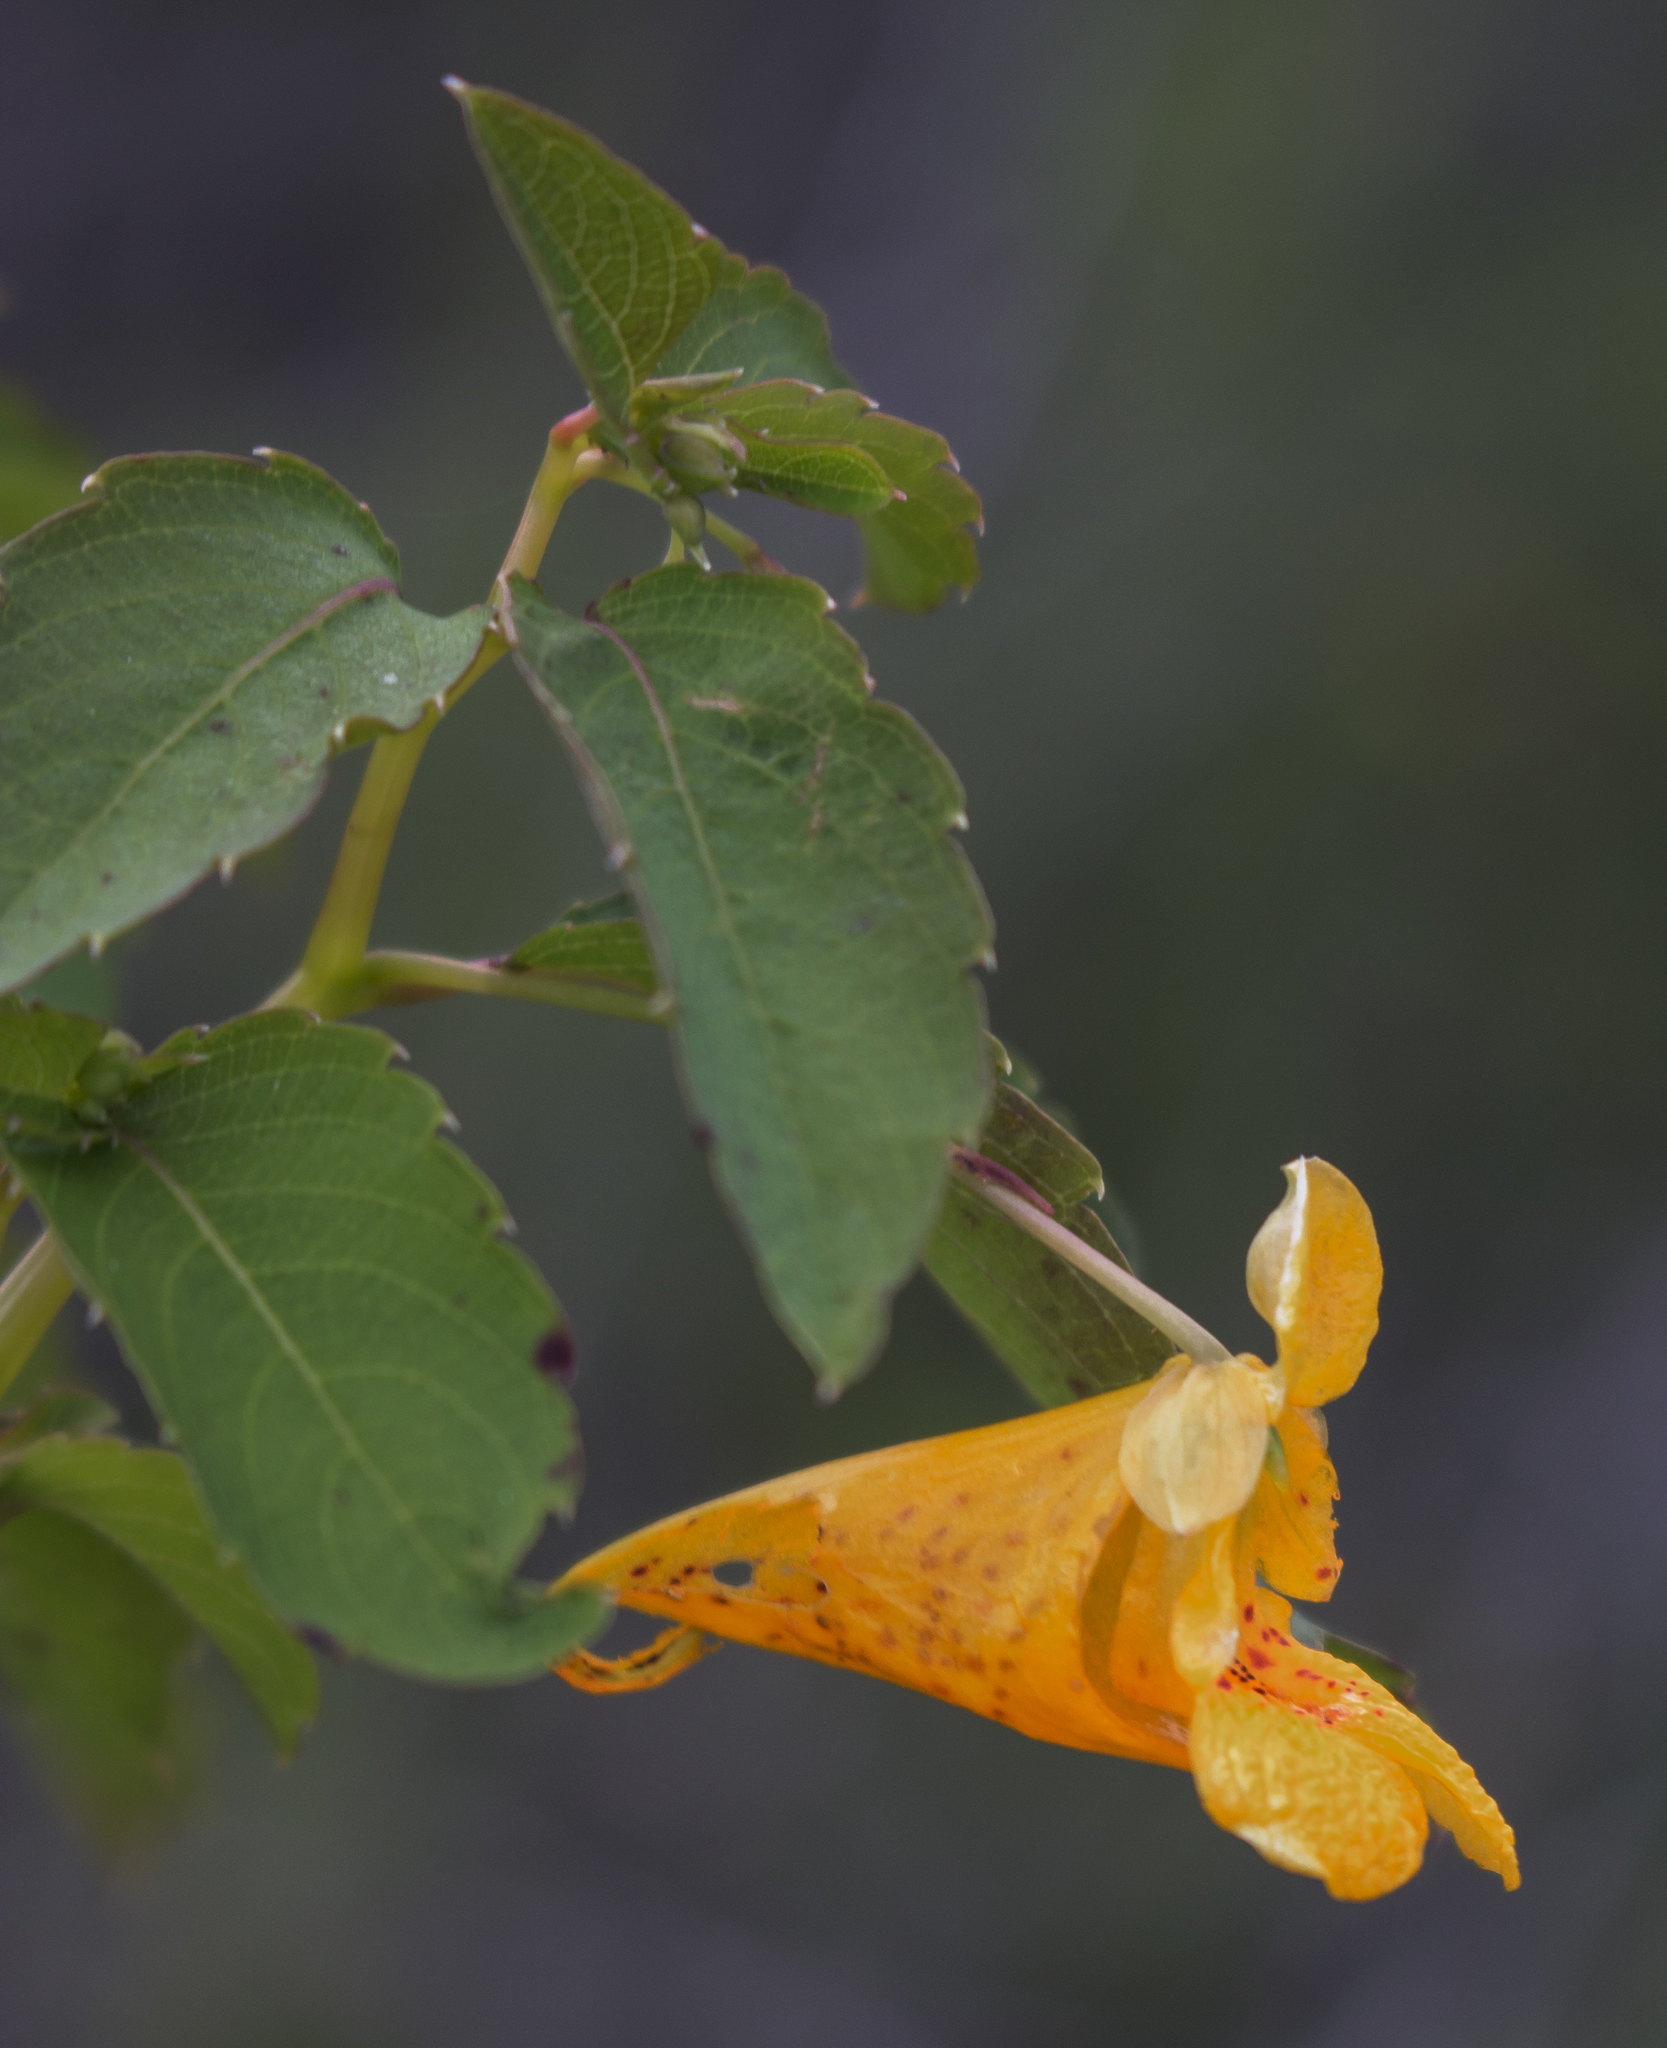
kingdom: Plantae
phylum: Tracheophyta
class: Magnoliopsida
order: Ericales
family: Balsaminaceae
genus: Impatiens
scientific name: Impatiens capensis
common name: Orange balsam
